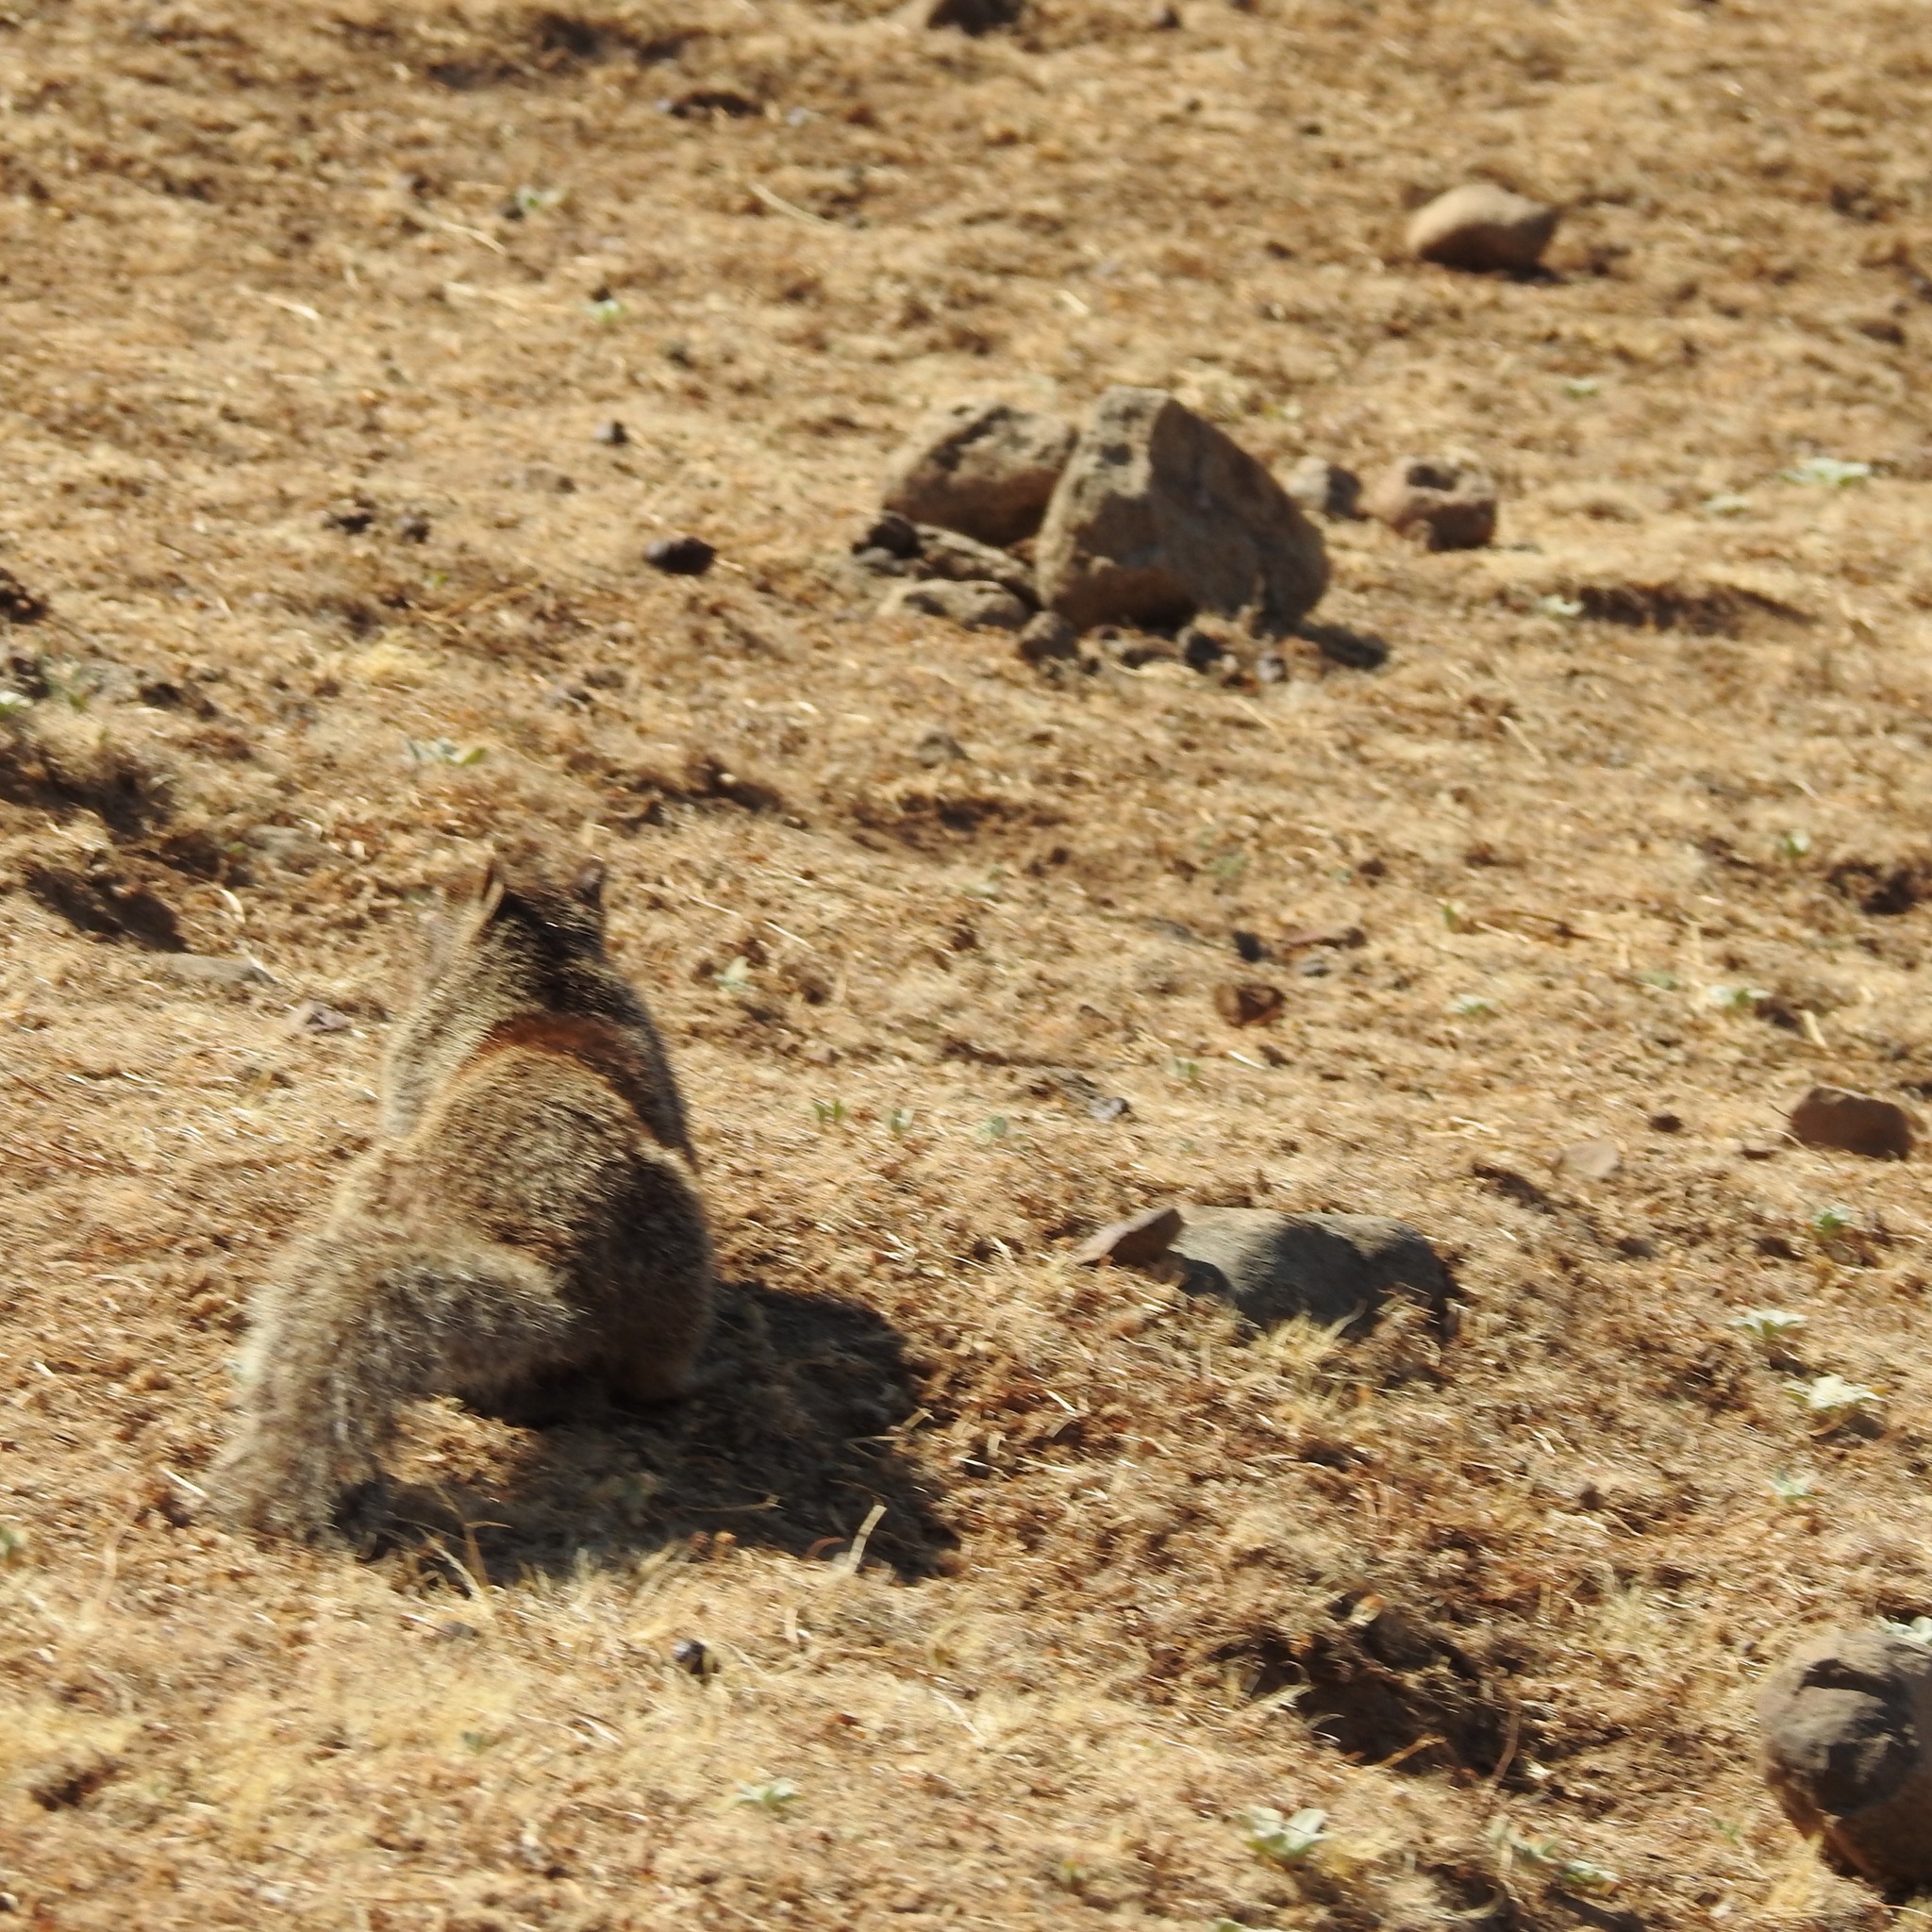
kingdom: Animalia
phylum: Chordata
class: Mammalia
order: Rodentia
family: Sciuridae
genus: Otospermophilus
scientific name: Otospermophilus beecheyi
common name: California ground squirrel
